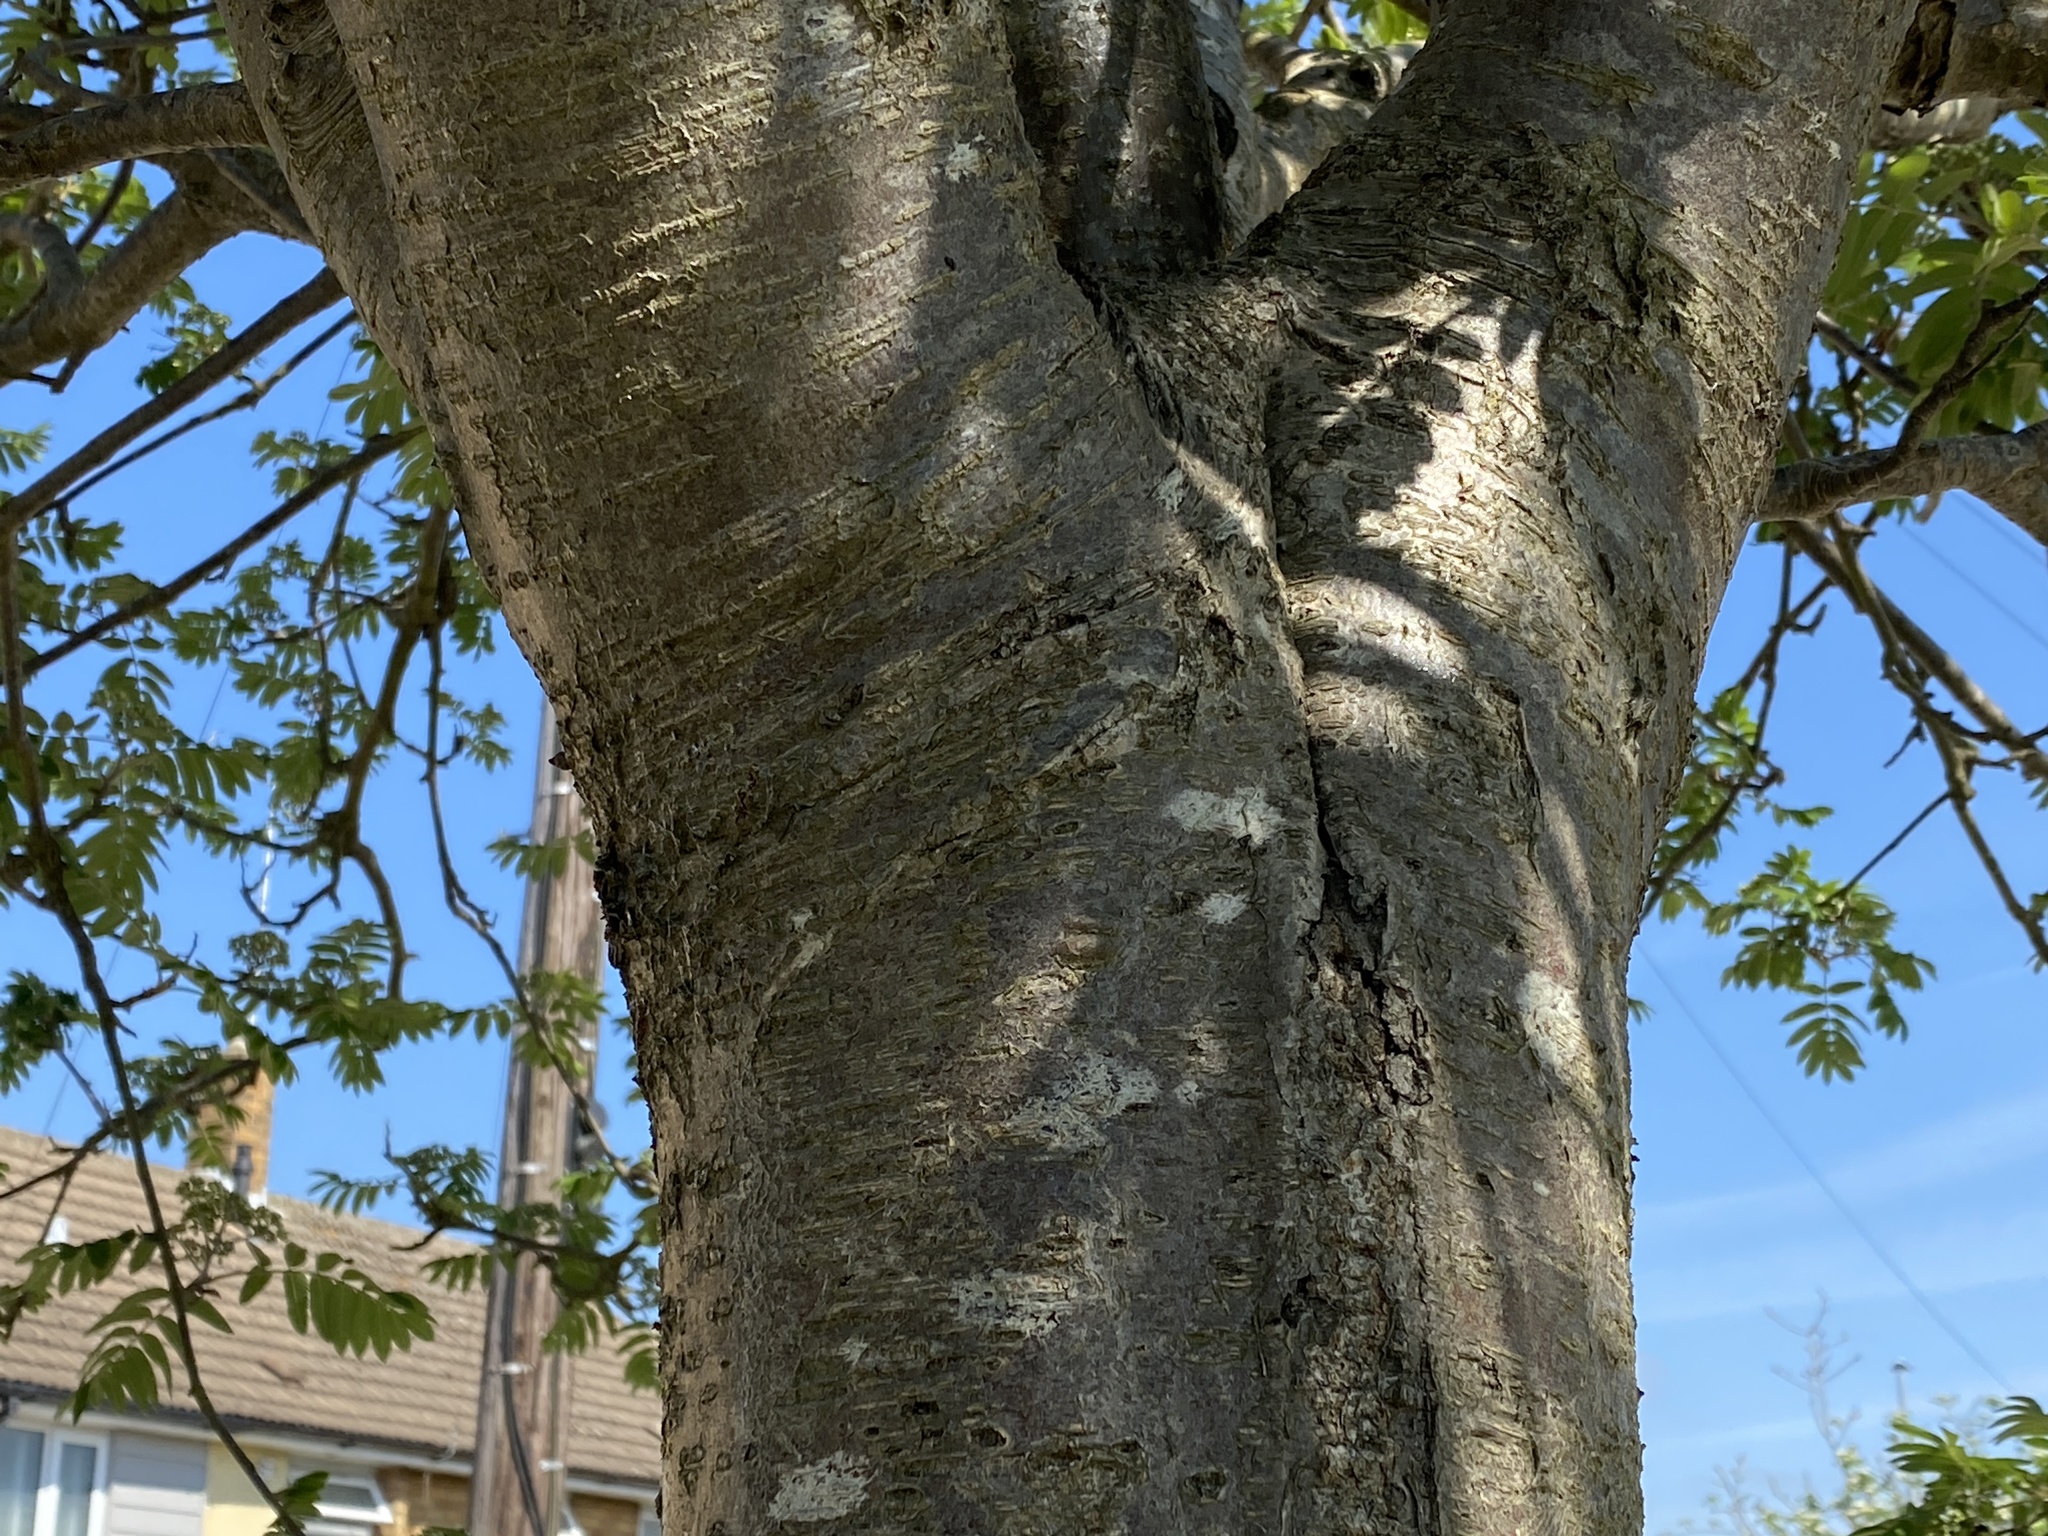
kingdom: Plantae
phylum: Tracheophyta
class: Magnoliopsida
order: Rosales
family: Rosaceae
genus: Sorbus
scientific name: Sorbus aucuparia
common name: Rowan
